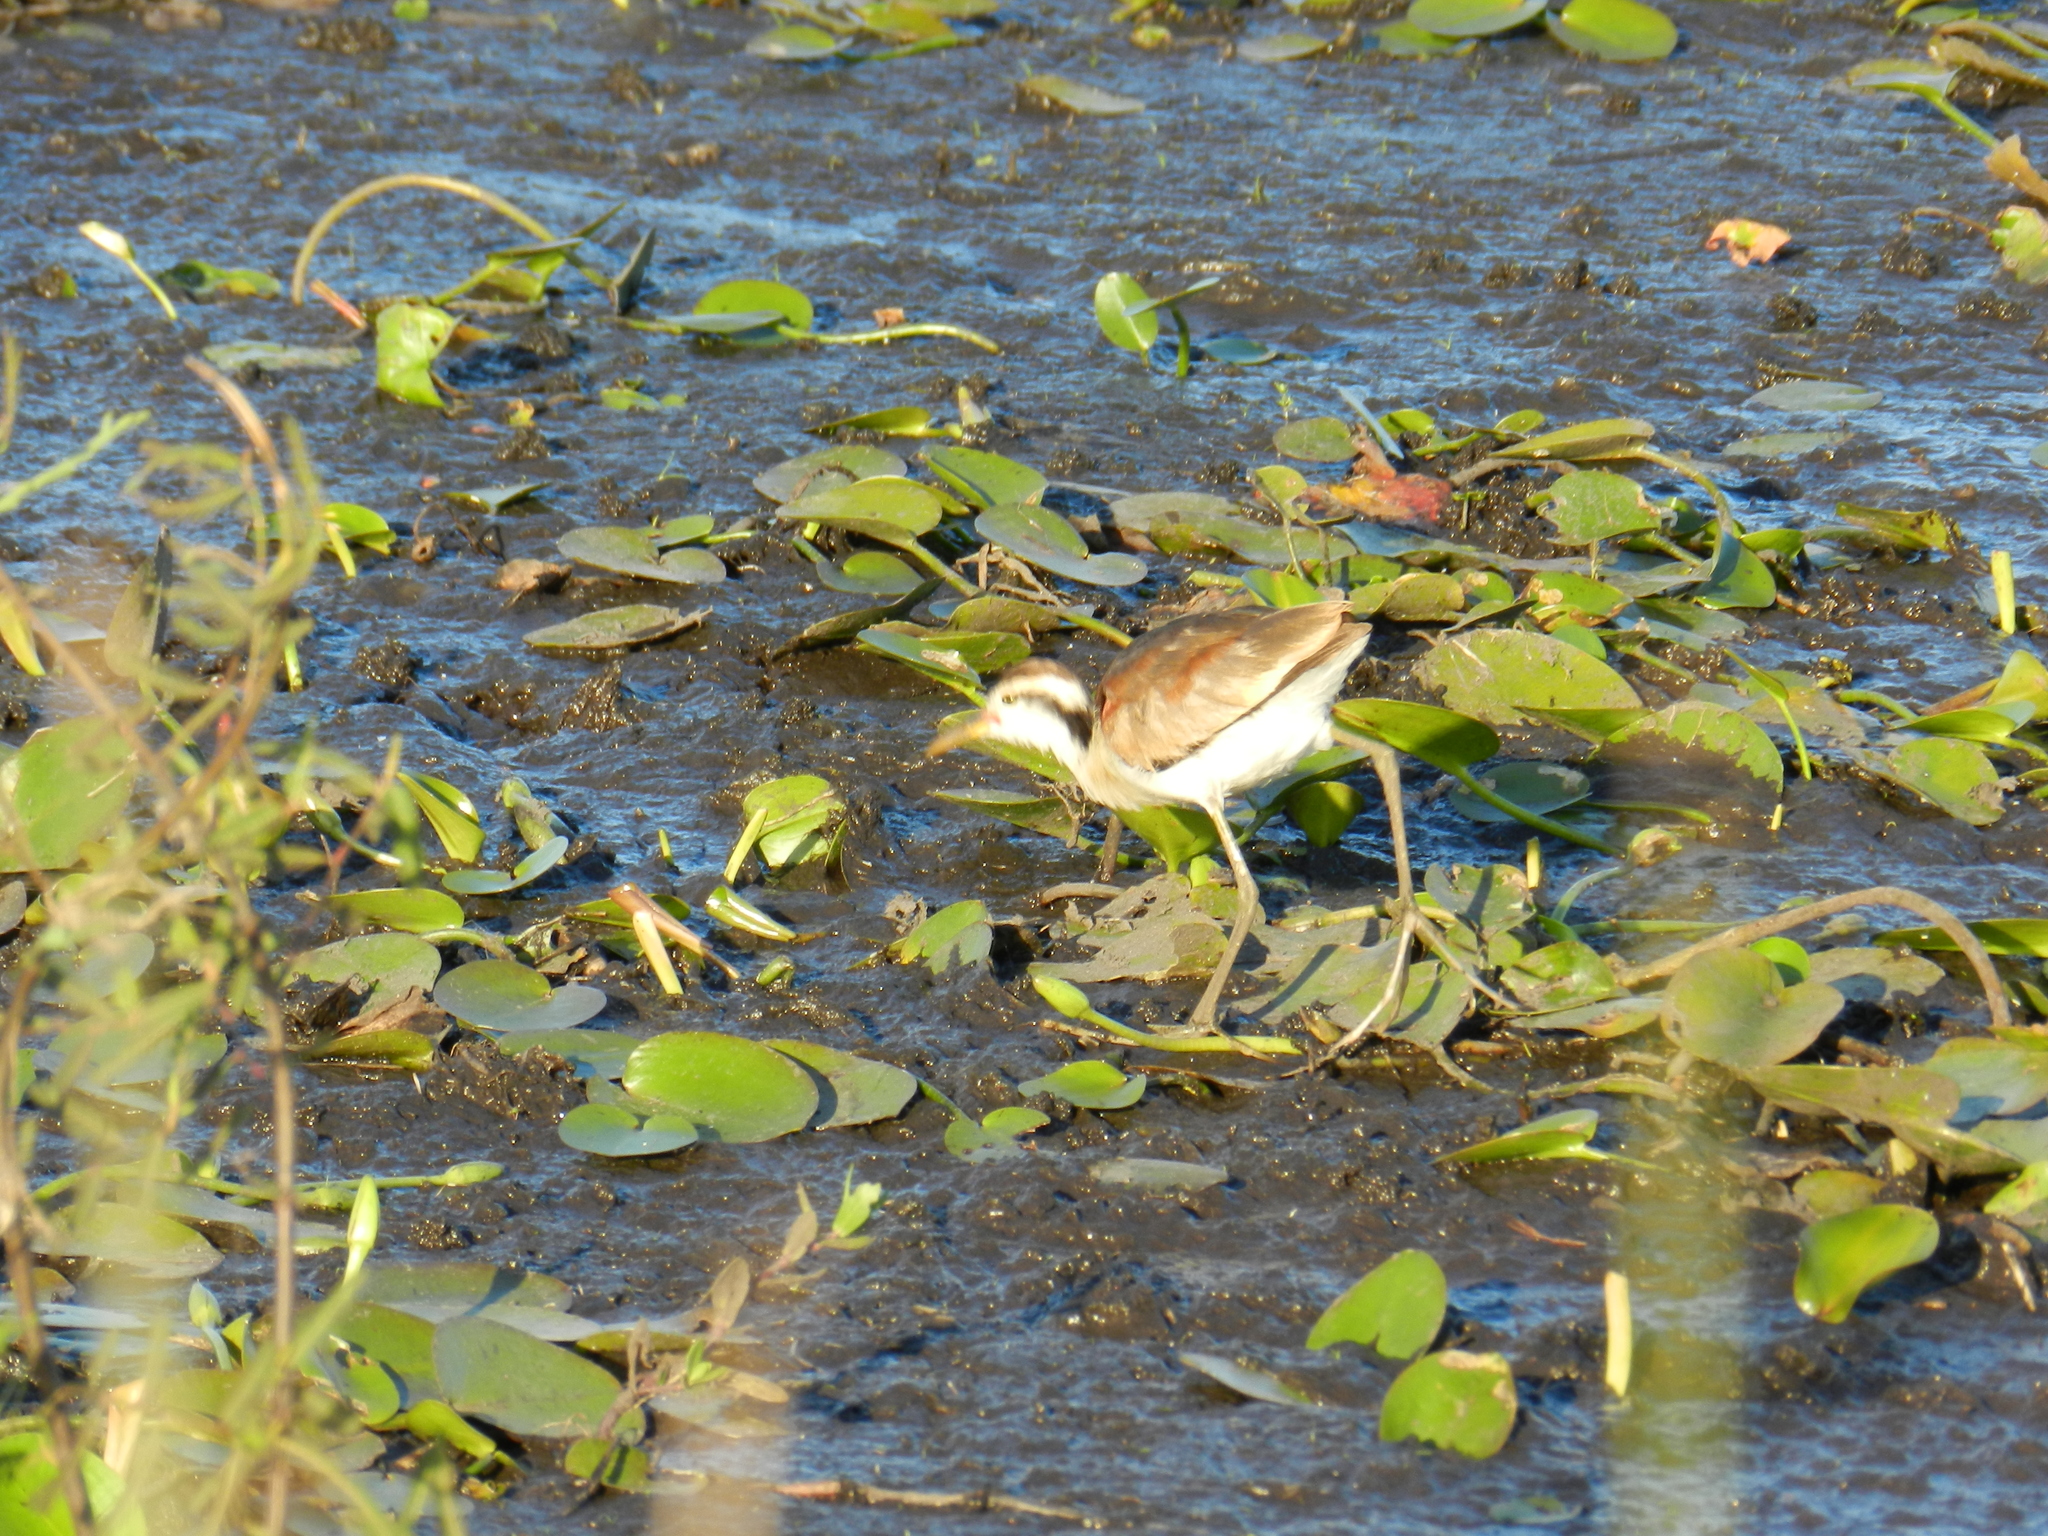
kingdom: Animalia
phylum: Chordata
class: Aves
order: Charadriiformes
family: Jacanidae
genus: Jacana
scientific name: Jacana jacana
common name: Wattled jacana
